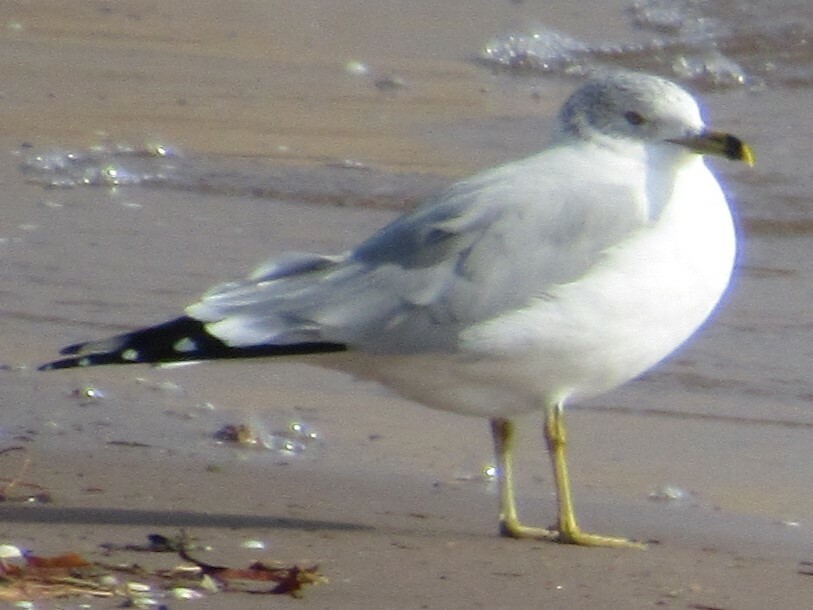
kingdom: Animalia
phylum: Chordata
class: Aves
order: Charadriiformes
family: Laridae
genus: Larus
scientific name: Larus delawarensis
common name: Ring-billed gull
